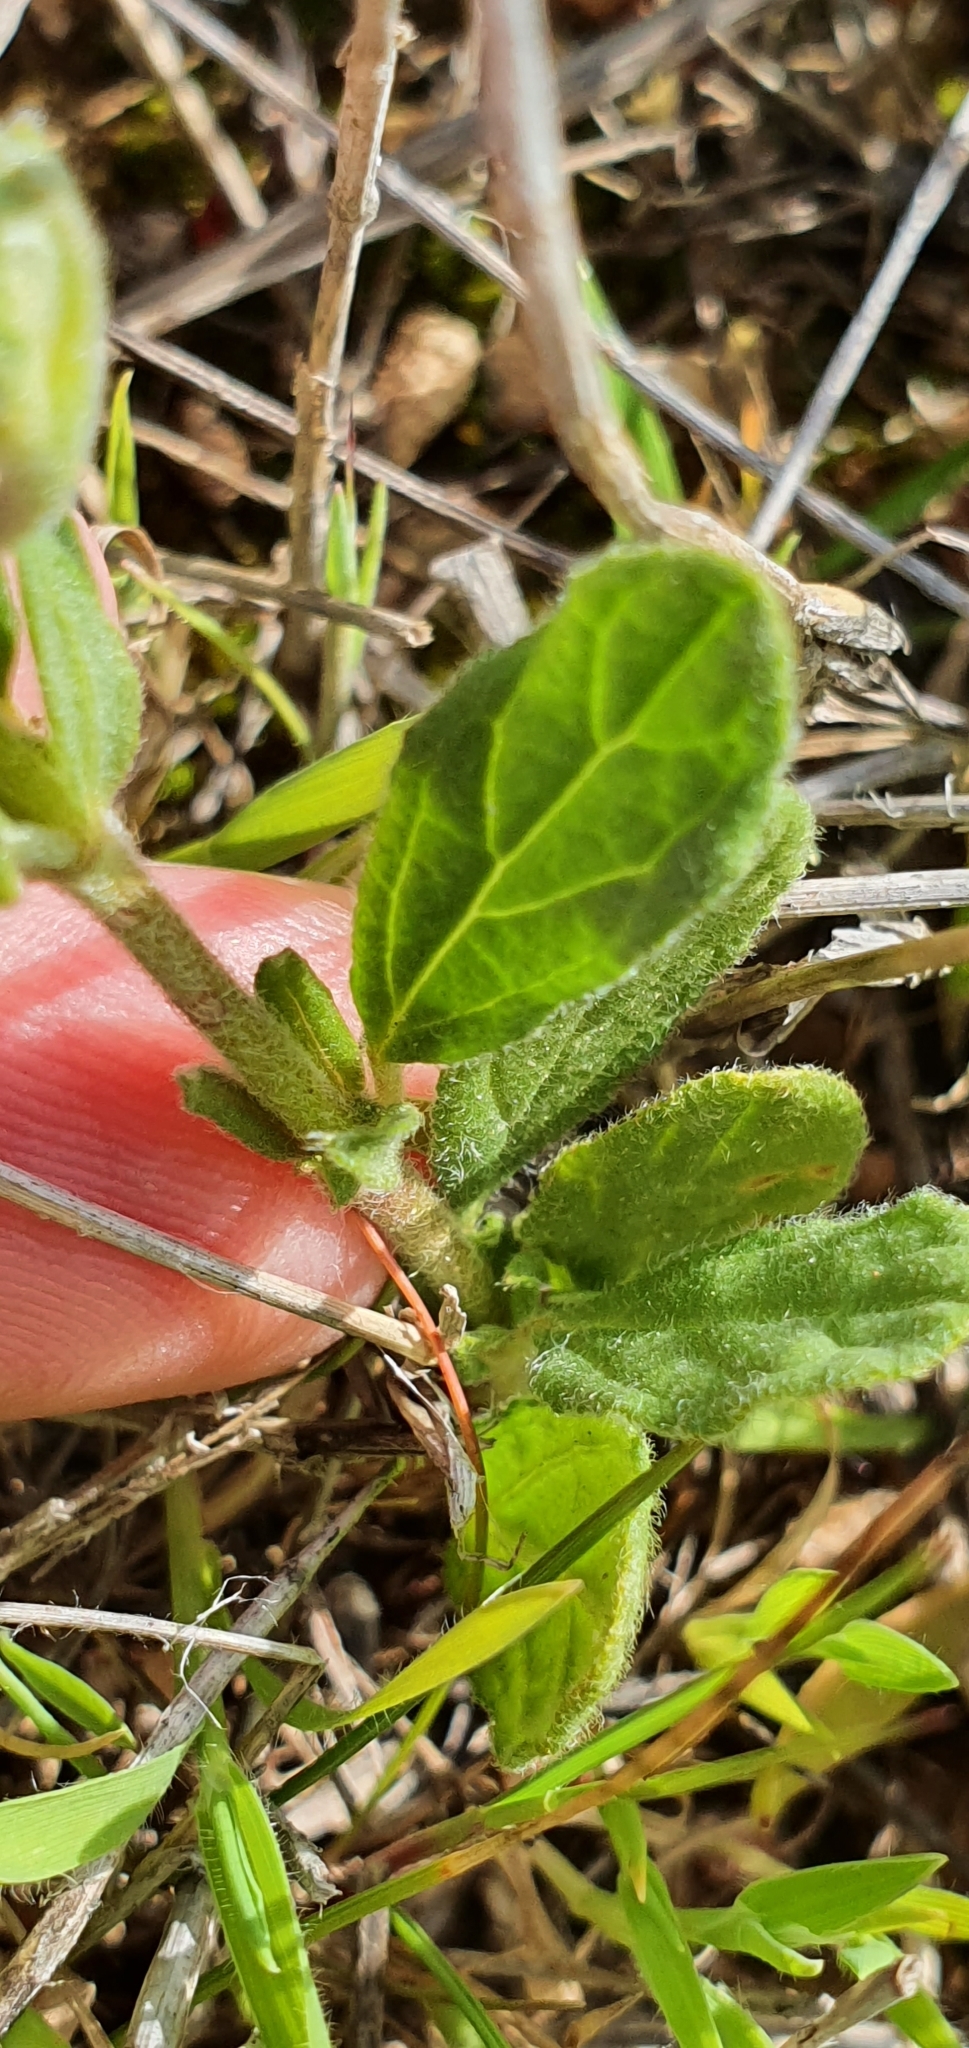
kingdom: Plantae
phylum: Tracheophyta
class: Magnoliopsida
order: Malvales
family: Cistaceae
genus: Helianthemum
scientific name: Helianthemum salicifolium
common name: Willowleaf frostweed
